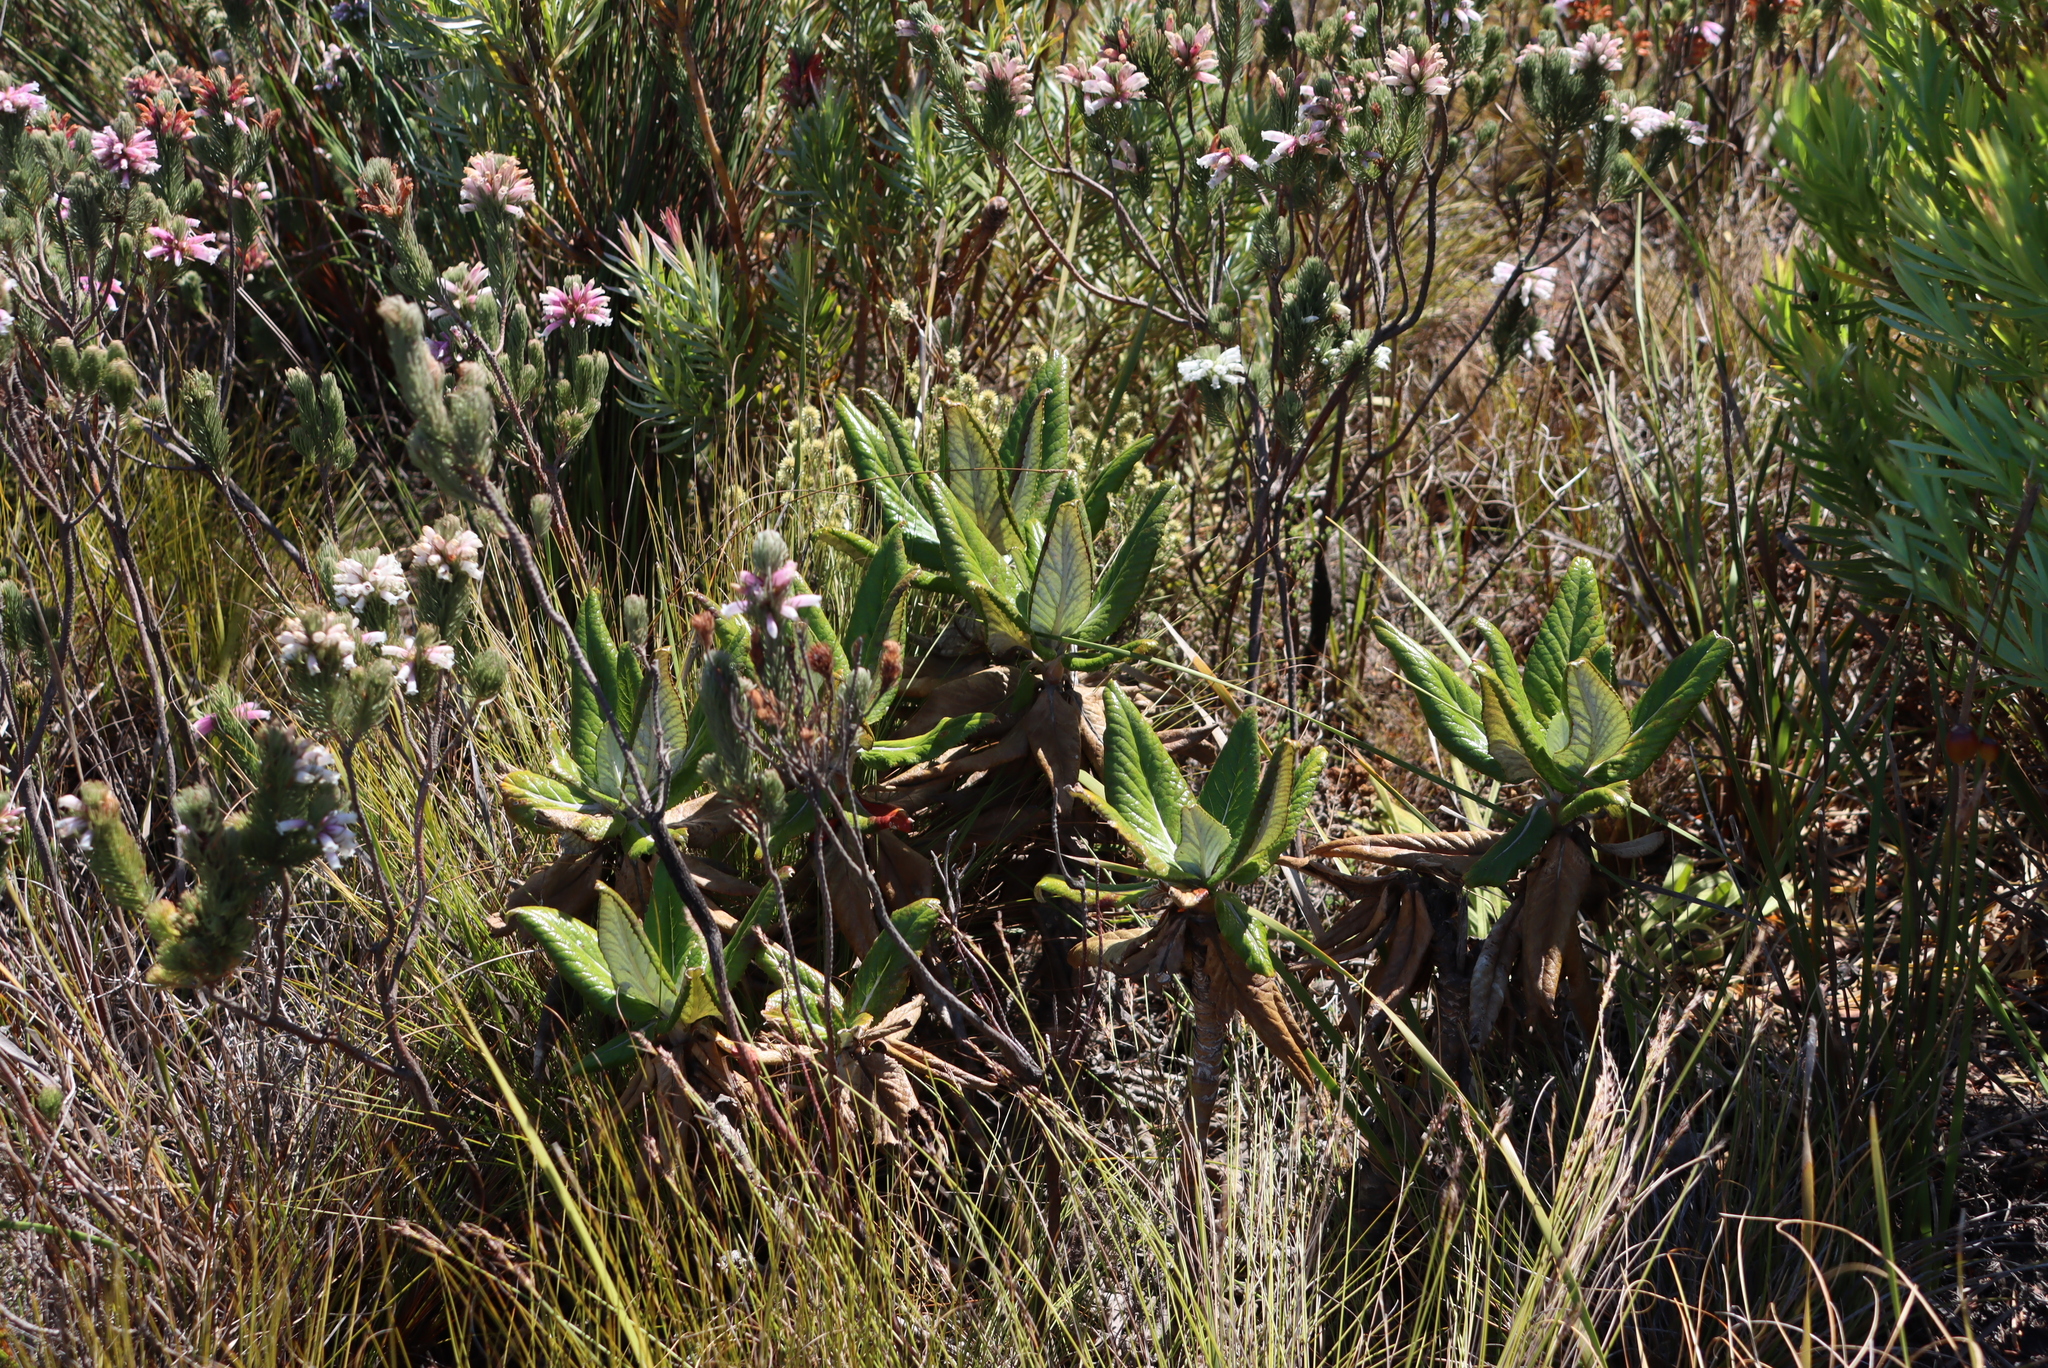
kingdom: Plantae
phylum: Tracheophyta
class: Magnoliopsida
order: Apiales
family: Apiaceae
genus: Hermas
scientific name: Hermas villosa
